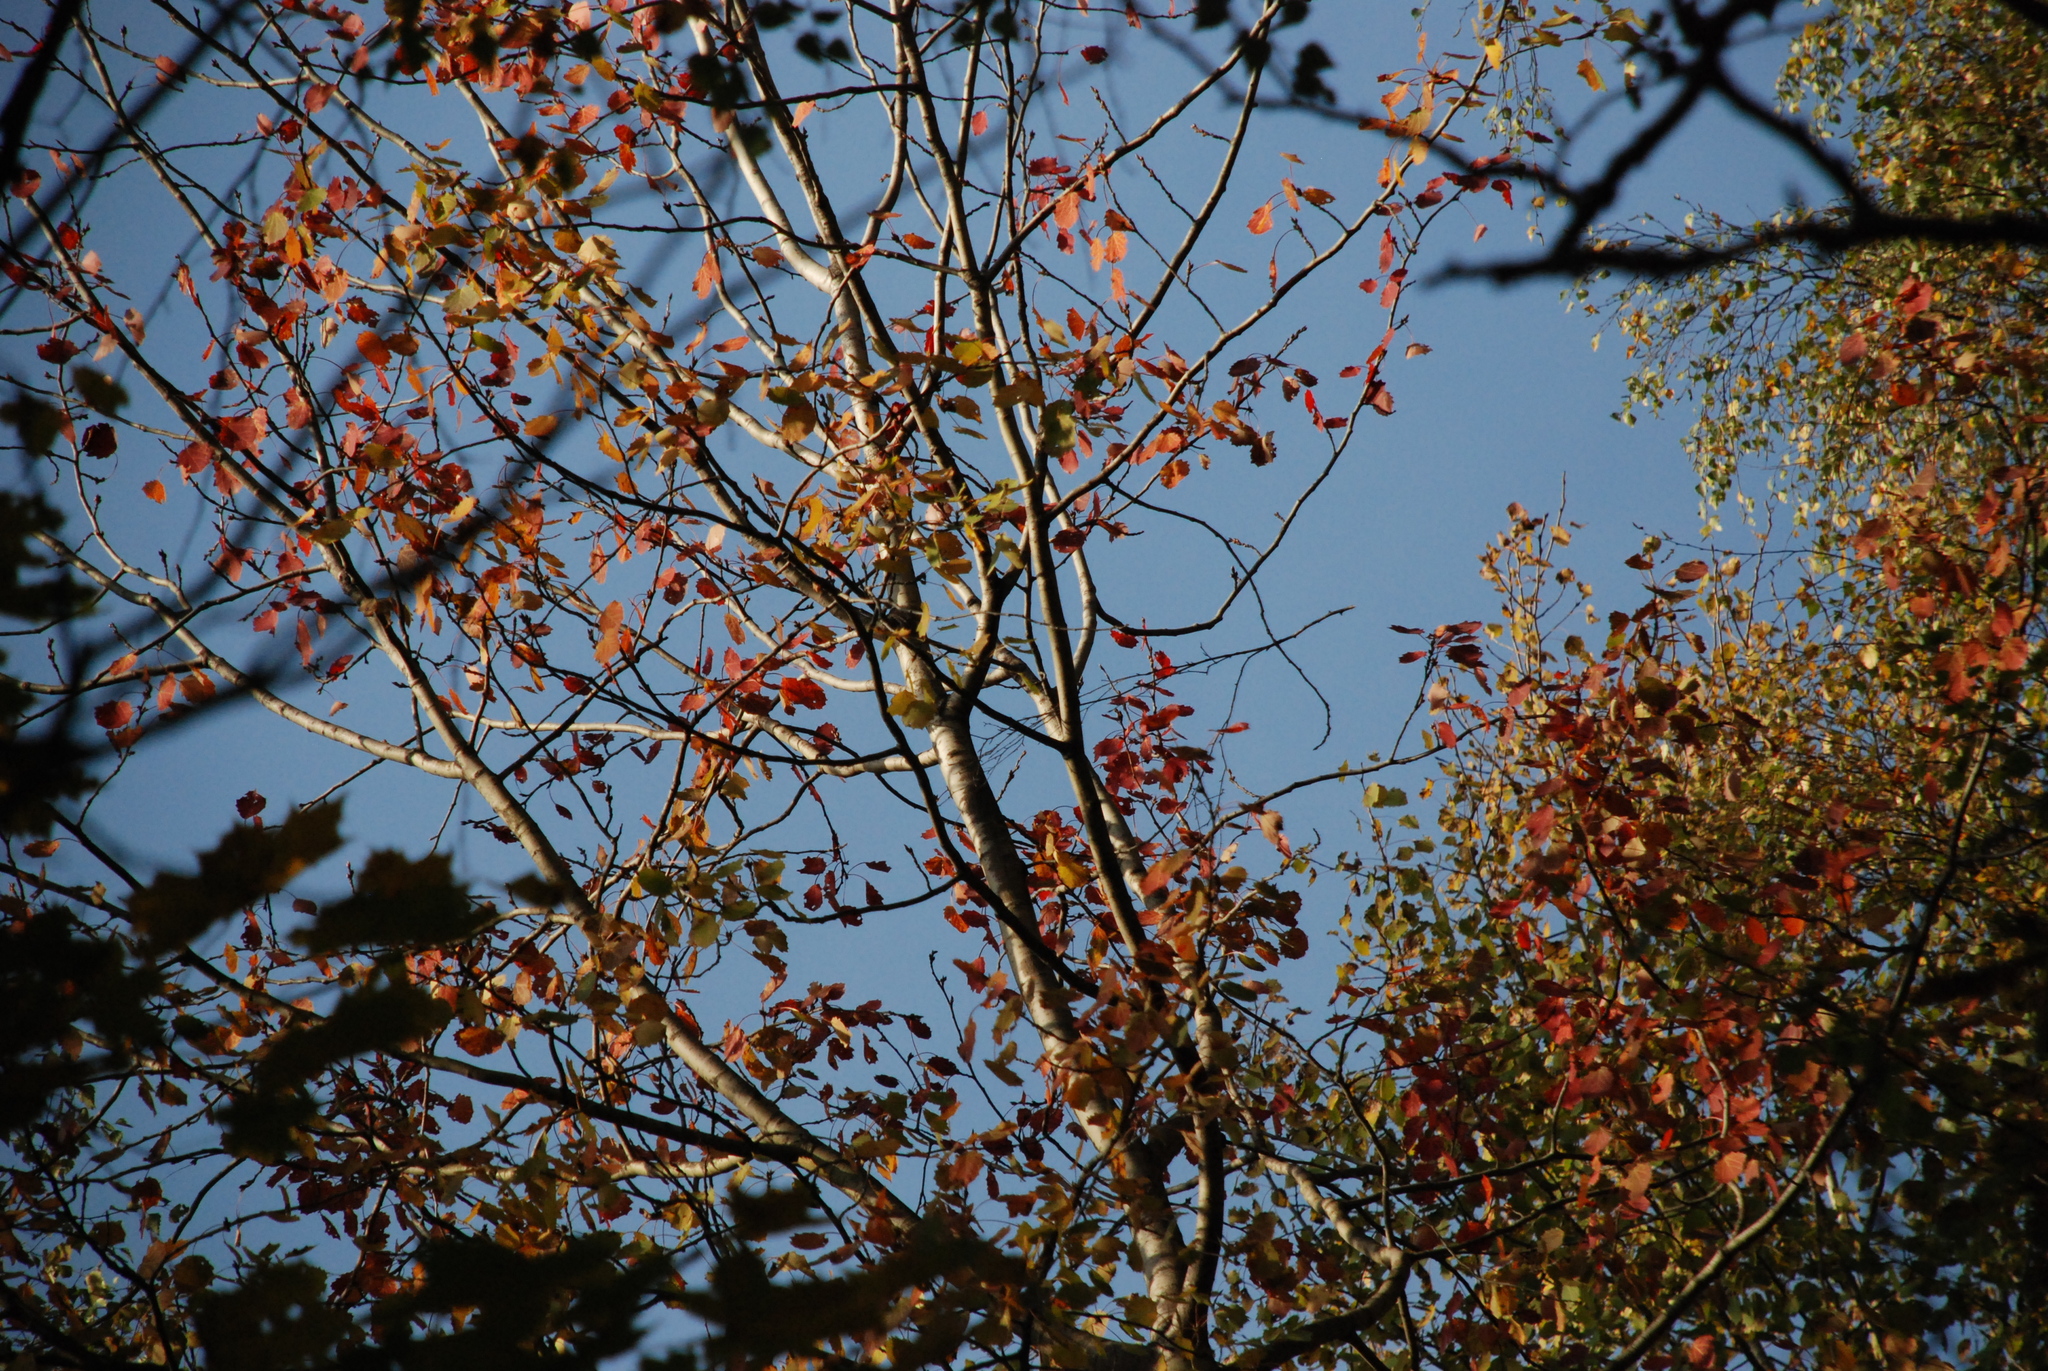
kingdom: Plantae
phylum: Tracheophyta
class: Magnoliopsida
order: Malpighiales
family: Salicaceae
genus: Populus
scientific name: Populus tremula
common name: European aspen
